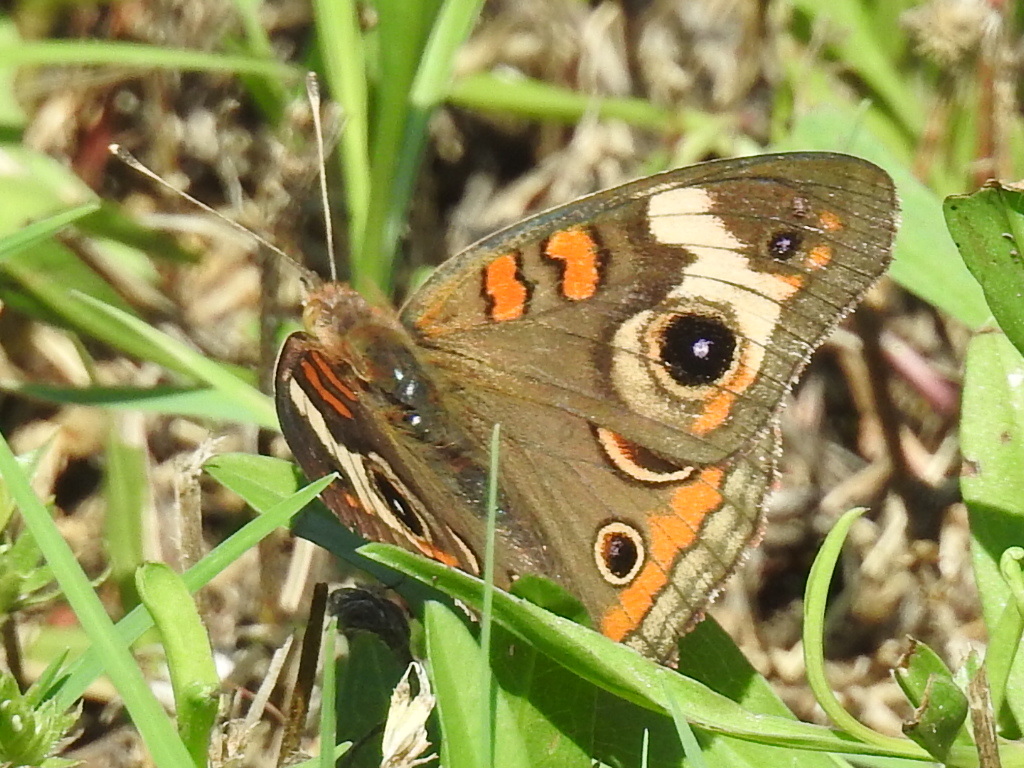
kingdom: Animalia
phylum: Arthropoda
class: Insecta
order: Lepidoptera
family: Nymphalidae
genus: Junonia
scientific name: Junonia coenia
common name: Common buckeye
